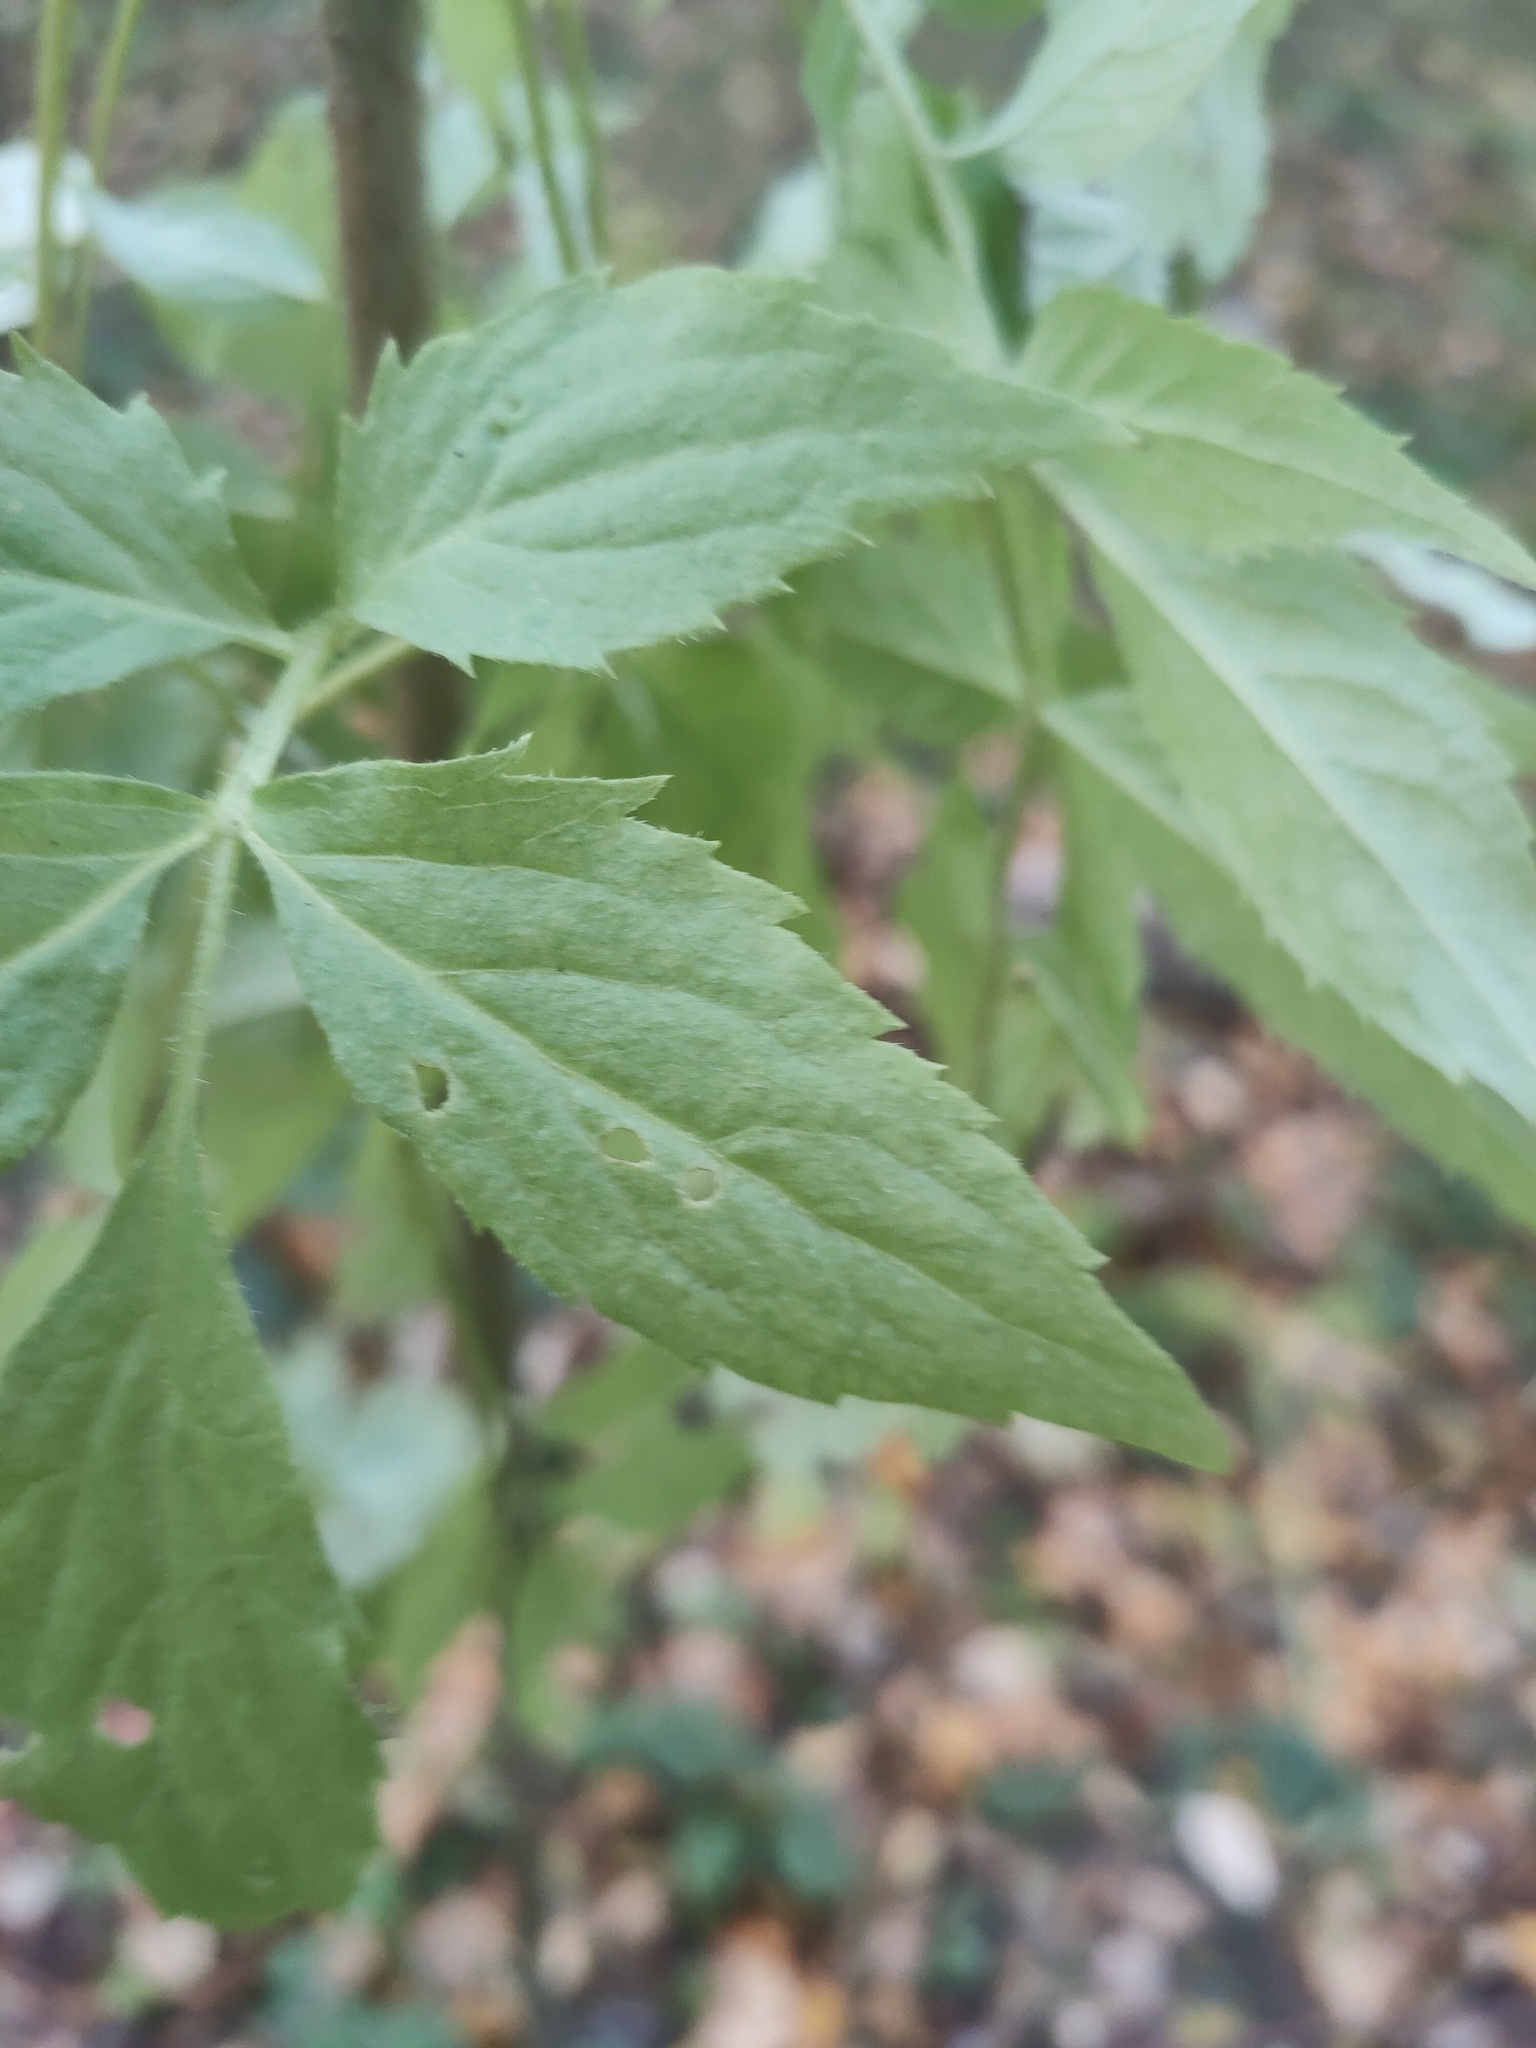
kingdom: Plantae
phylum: Tracheophyta
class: Magnoliopsida
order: Dipsacales
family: Viburnaceae
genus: Sambucus
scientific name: Sambucus nigra
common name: Elder
